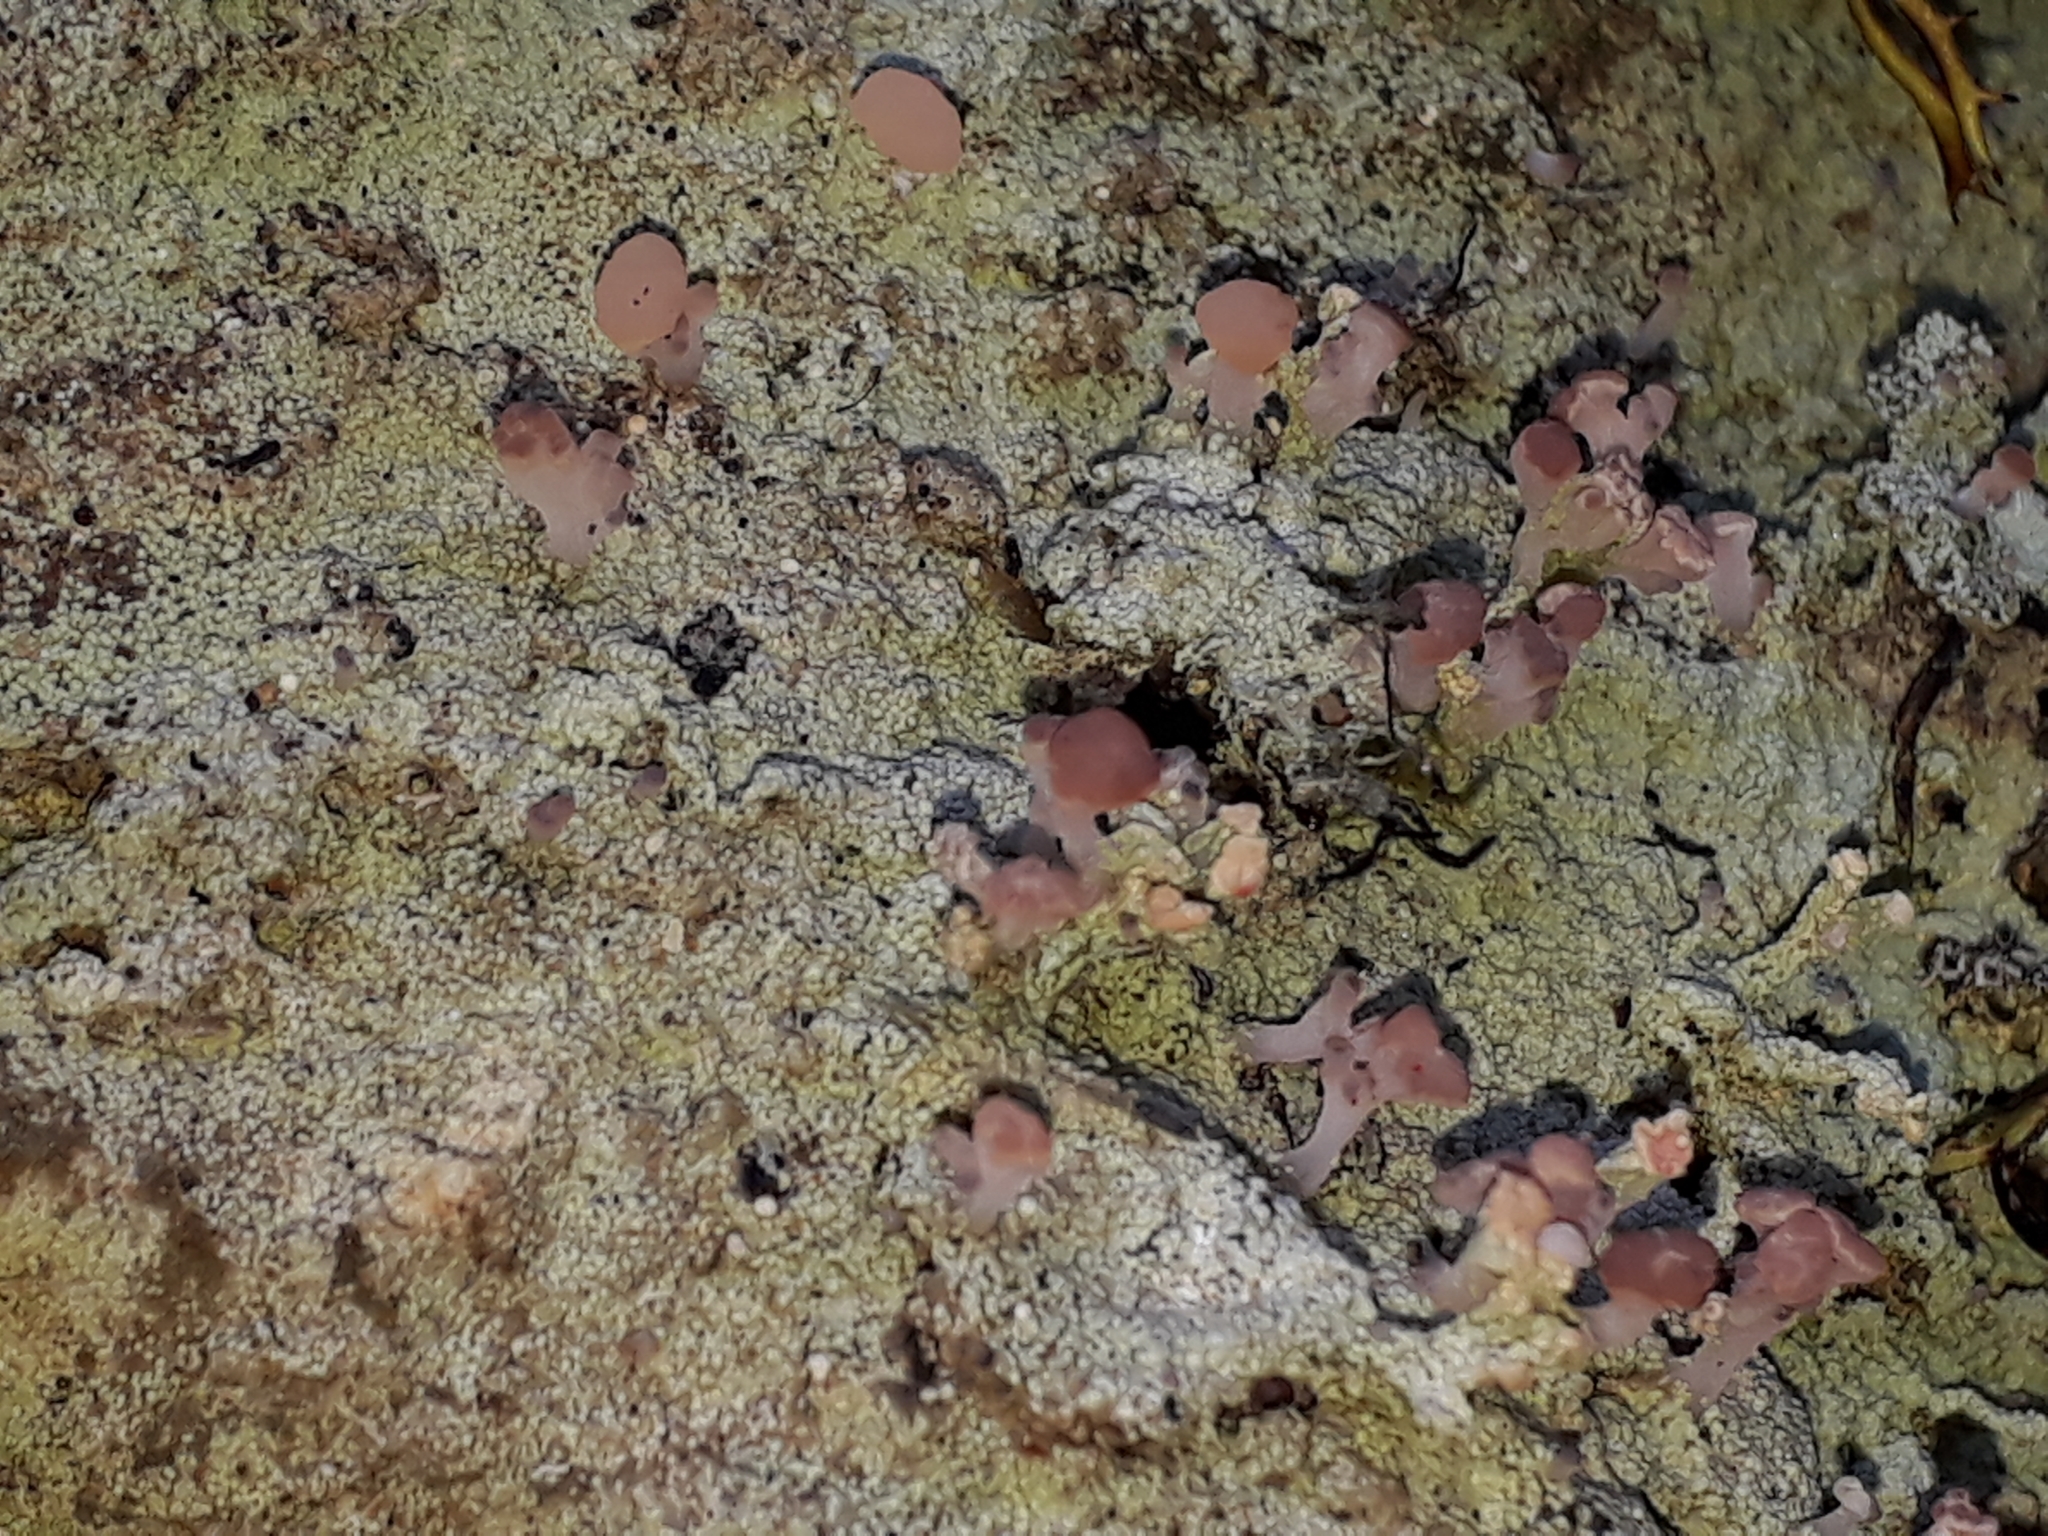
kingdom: Fungi
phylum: Ascomycota
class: Lecanoromycetes
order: Baeomycetales
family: Baeomycetaceae
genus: Baeomyces
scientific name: Baeomyces heteromorphus
